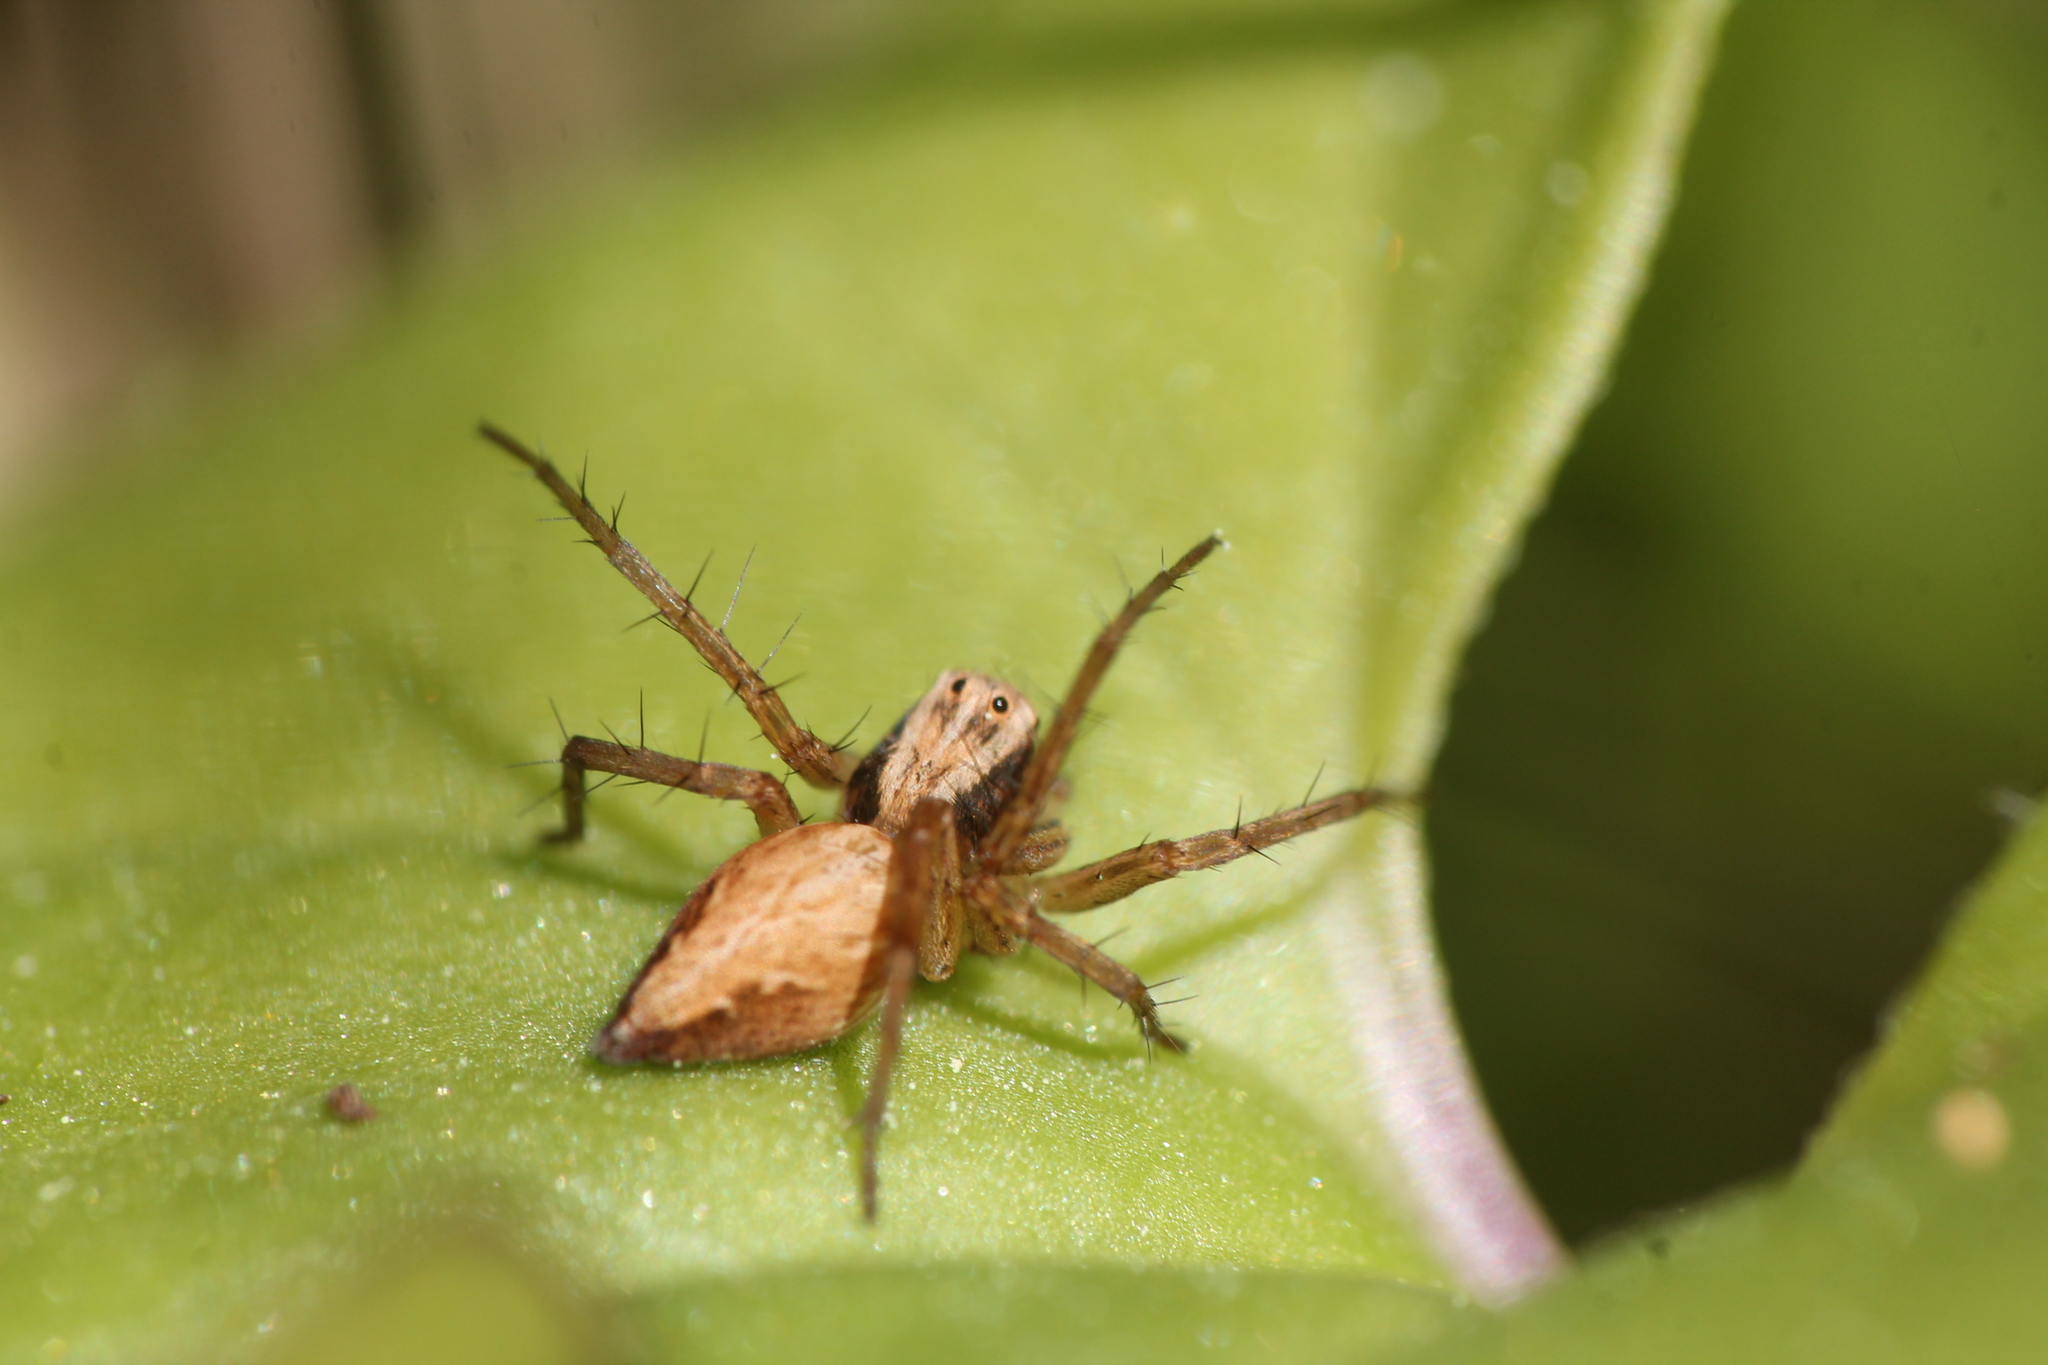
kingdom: Animalia
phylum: Arthropoda
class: Arachnida
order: Araneae
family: Oxyopidae
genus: Oxyopes
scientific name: Oxyopes gracilipes
